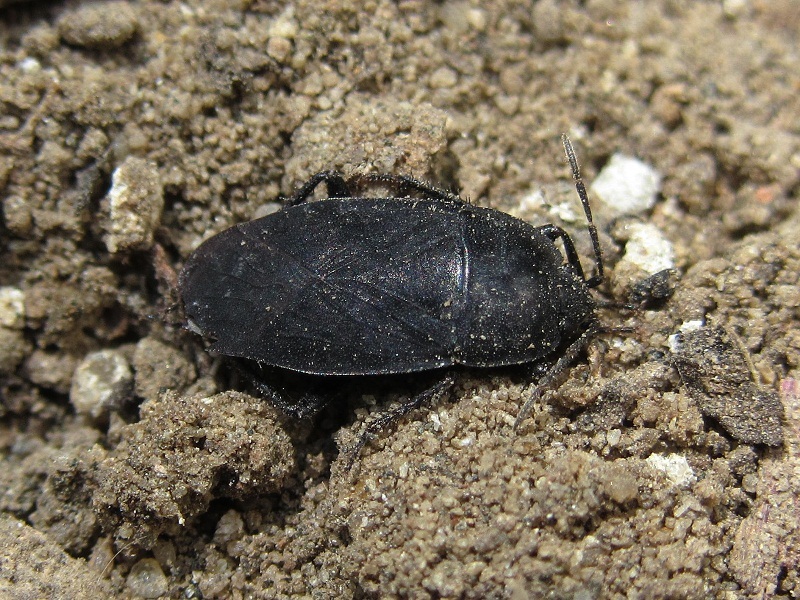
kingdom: Animalia
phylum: Arthropoda
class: Insecta
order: Hemiptera
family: Rhyparochromidae
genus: Aellopus
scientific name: Aellopus atratus
